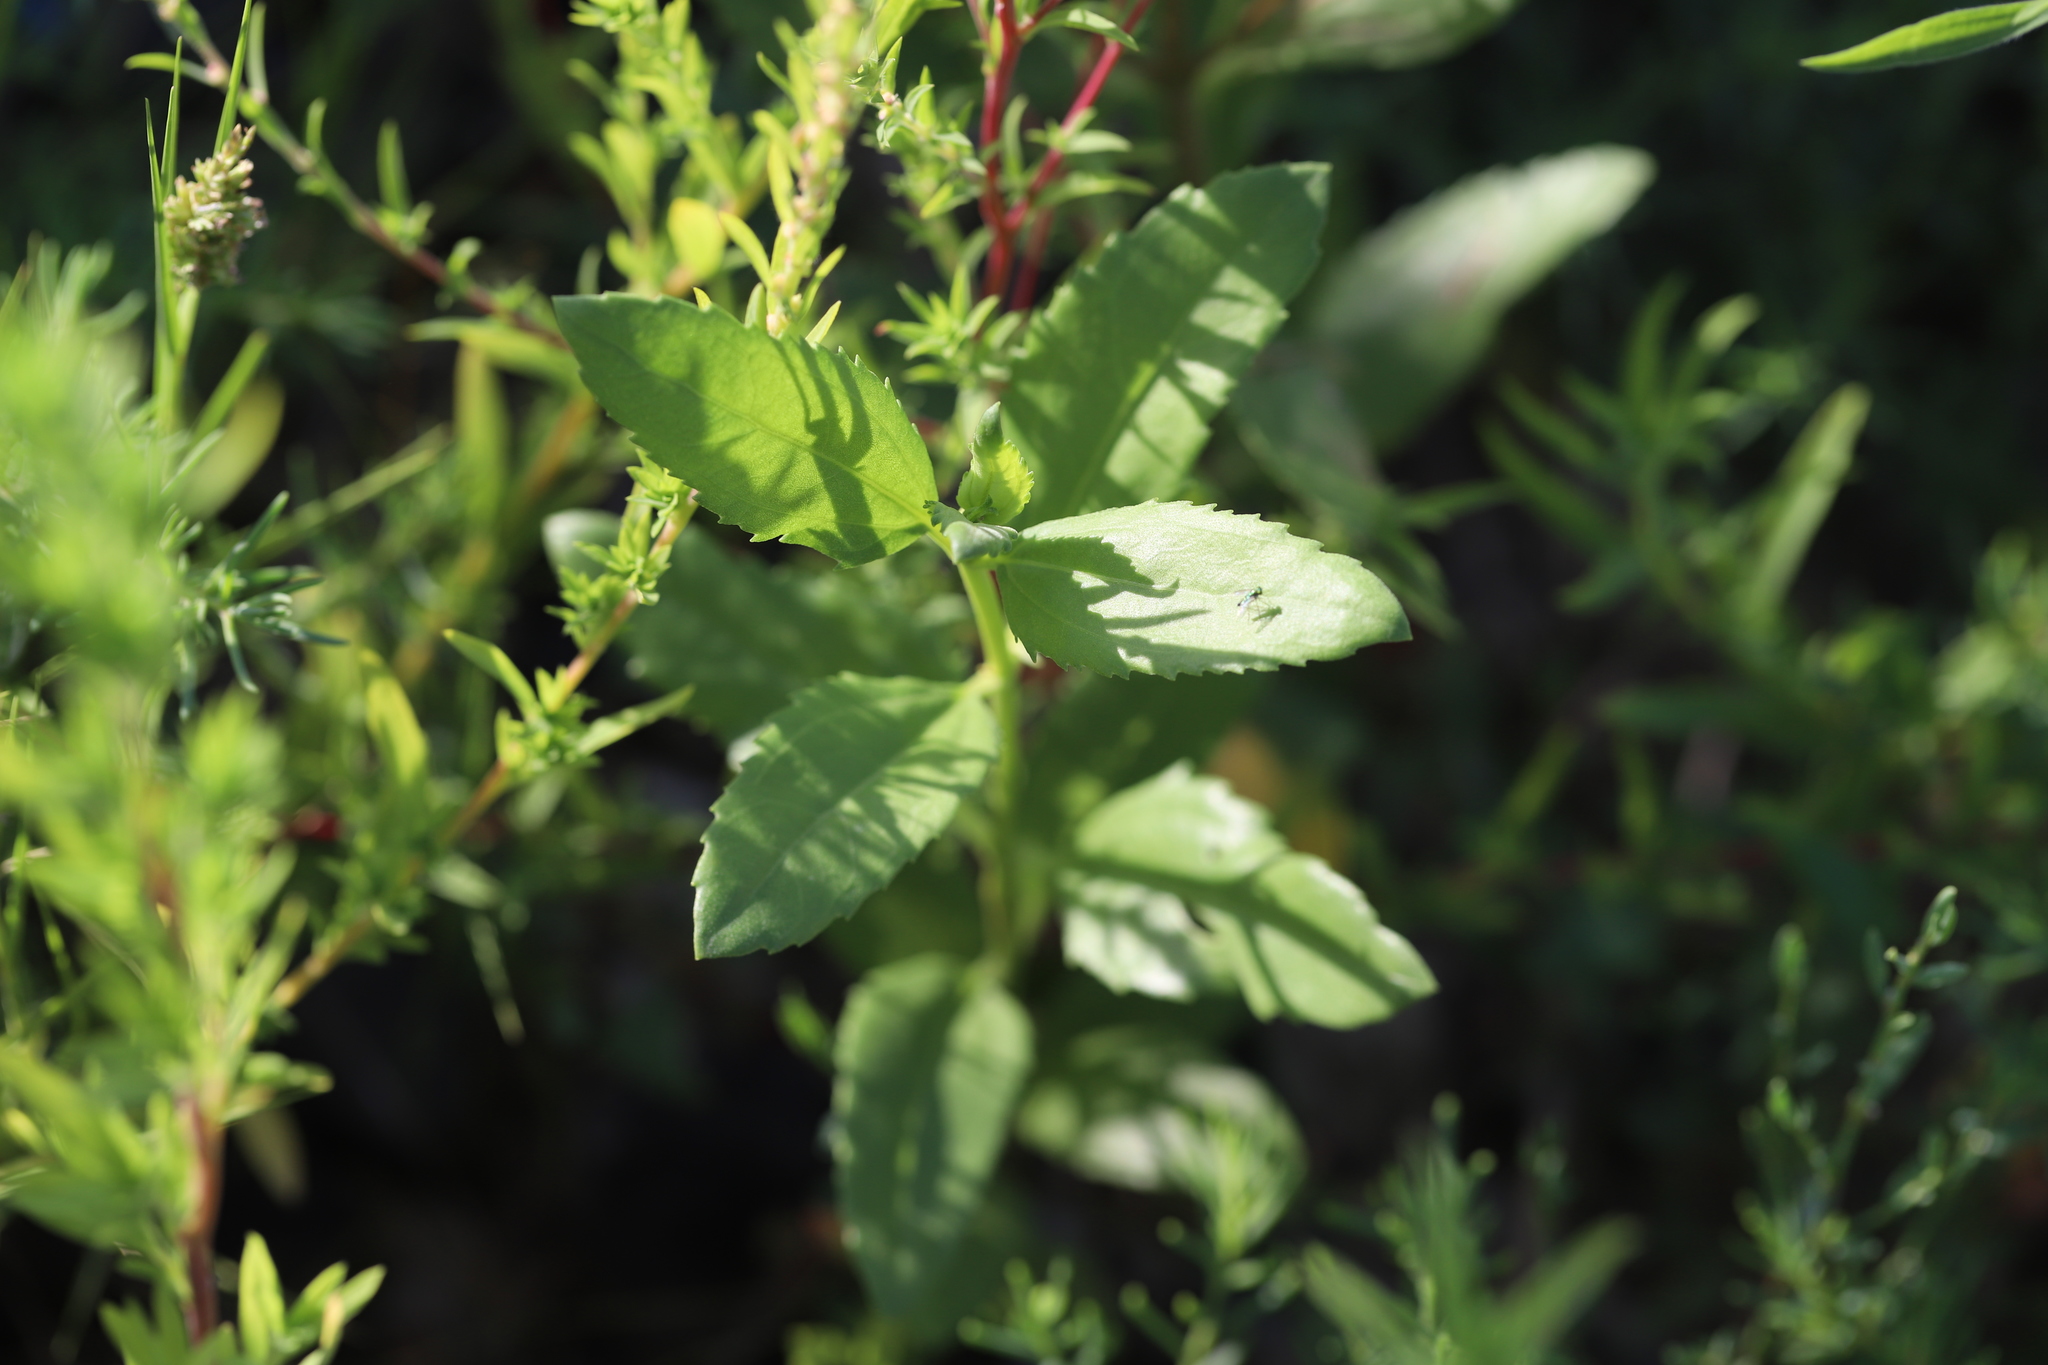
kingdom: Plantae
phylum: Tracheophyta
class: Magnoliopsida
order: Caryophyllales
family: Amaranthaceae
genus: Bassia
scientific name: Bassia scoparia
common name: Belvedere
